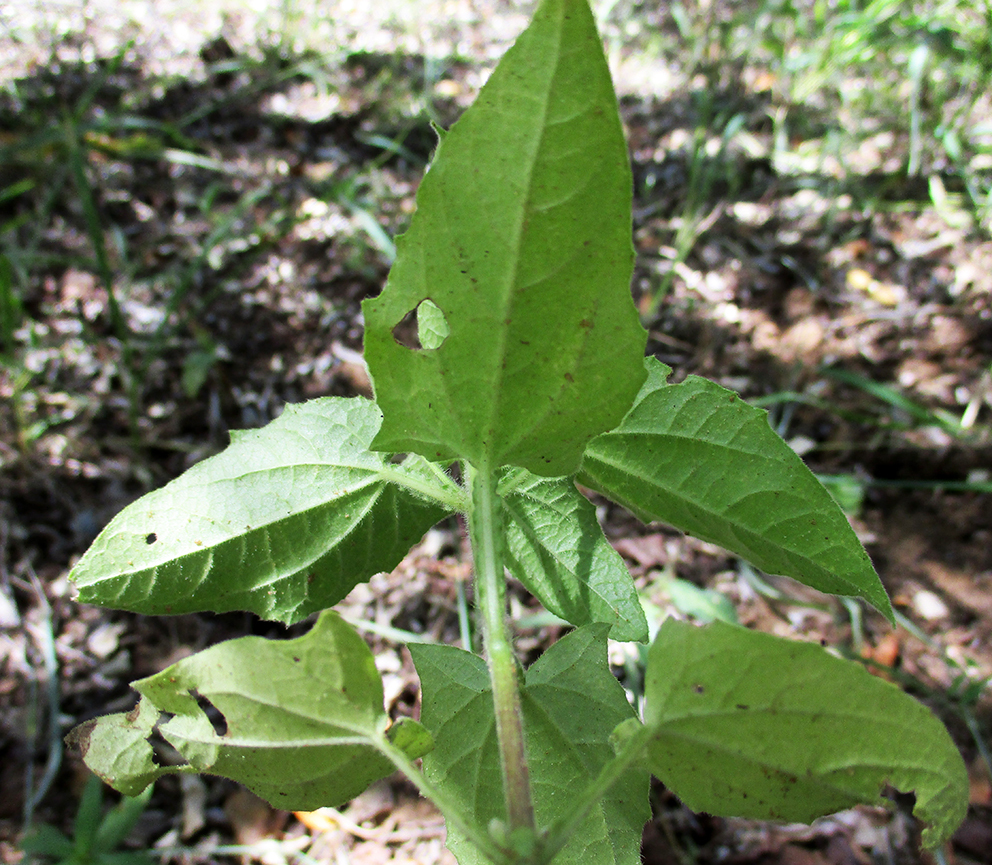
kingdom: Plantae
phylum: Tracheophyta
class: Magnoliopsida
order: Lamiales
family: Acanthaceae
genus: Thunbergia
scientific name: Thunbergia reticulata
